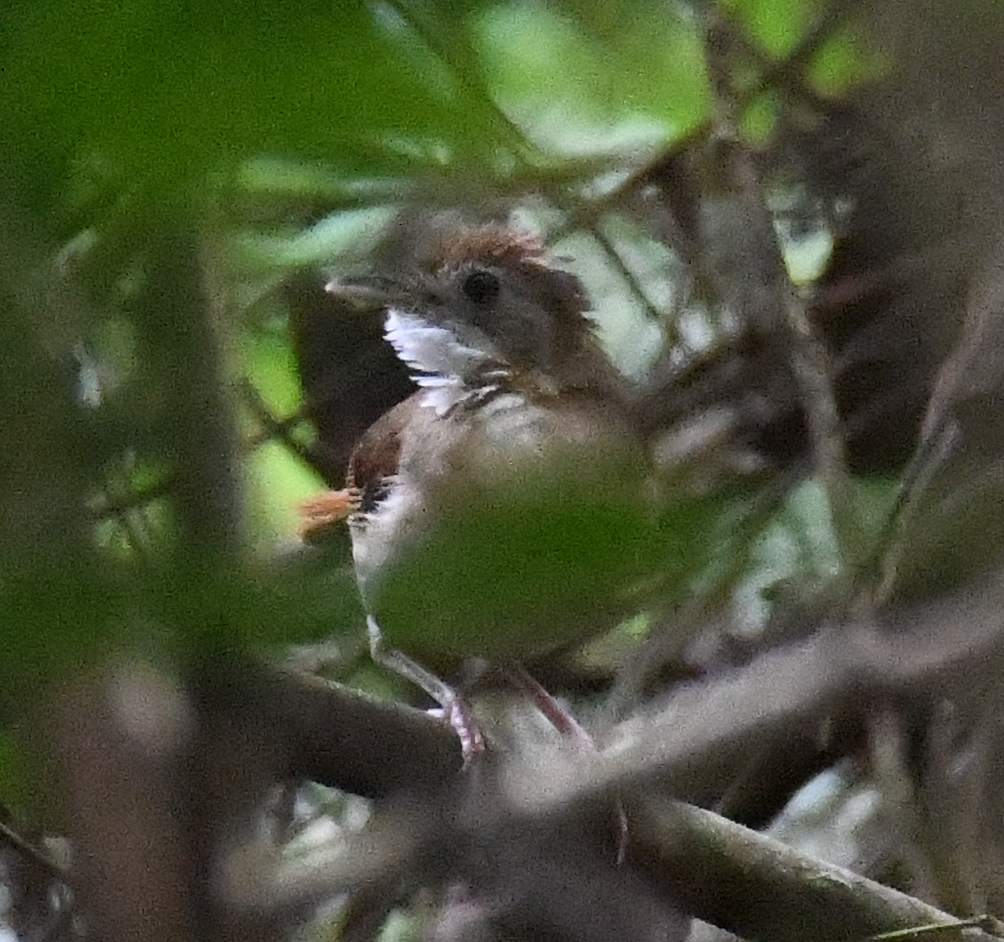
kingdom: Animalia
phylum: Chordata
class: Aves
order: Passeriformes
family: Pellorneidae
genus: Illadopsis
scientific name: Illadopsis puveli
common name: Puvel's illadopsis
